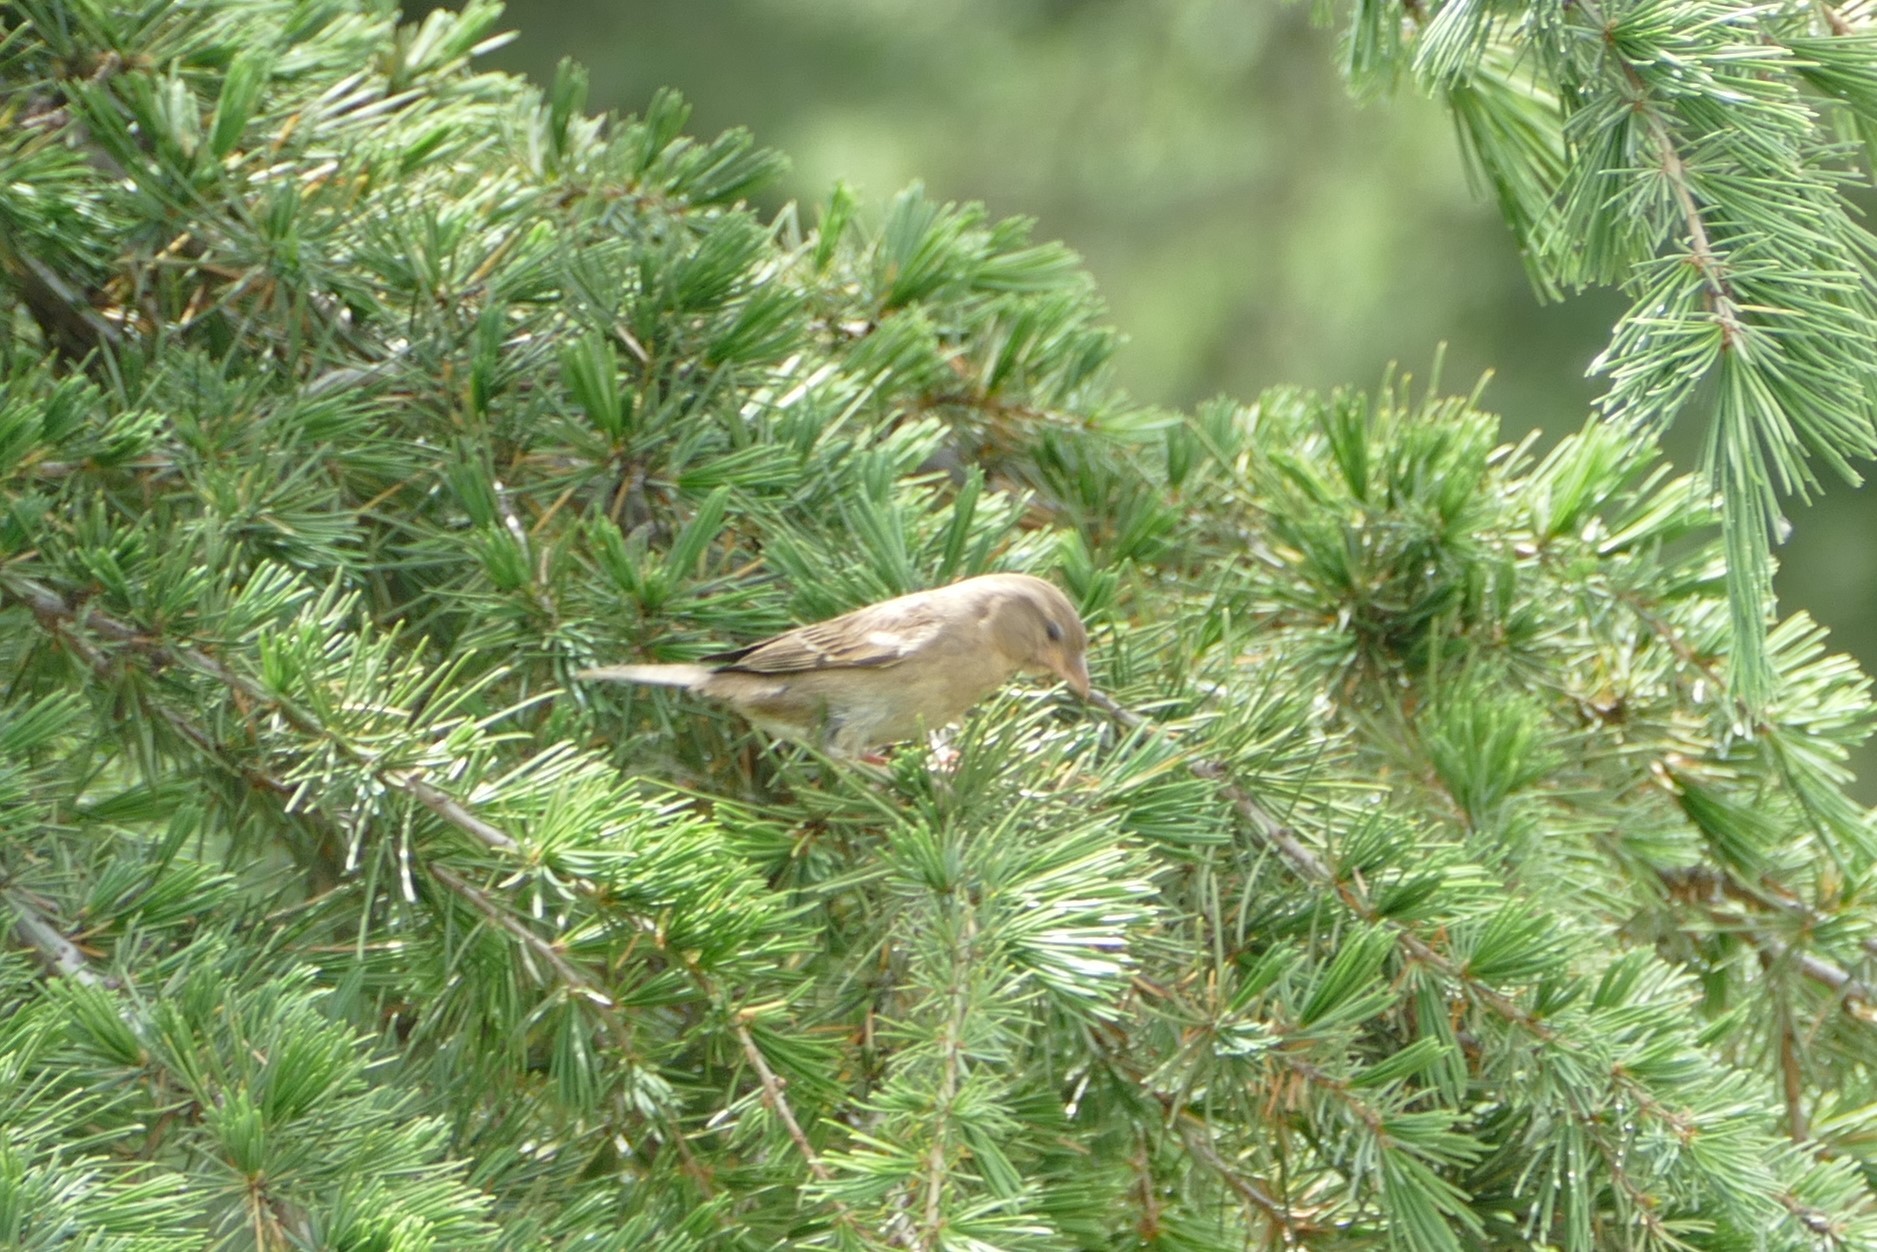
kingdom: Animalia
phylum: Chordata
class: Aves
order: Passeriformes
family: Passeridae
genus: Passer
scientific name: Passer domesticus
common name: House sparrow
